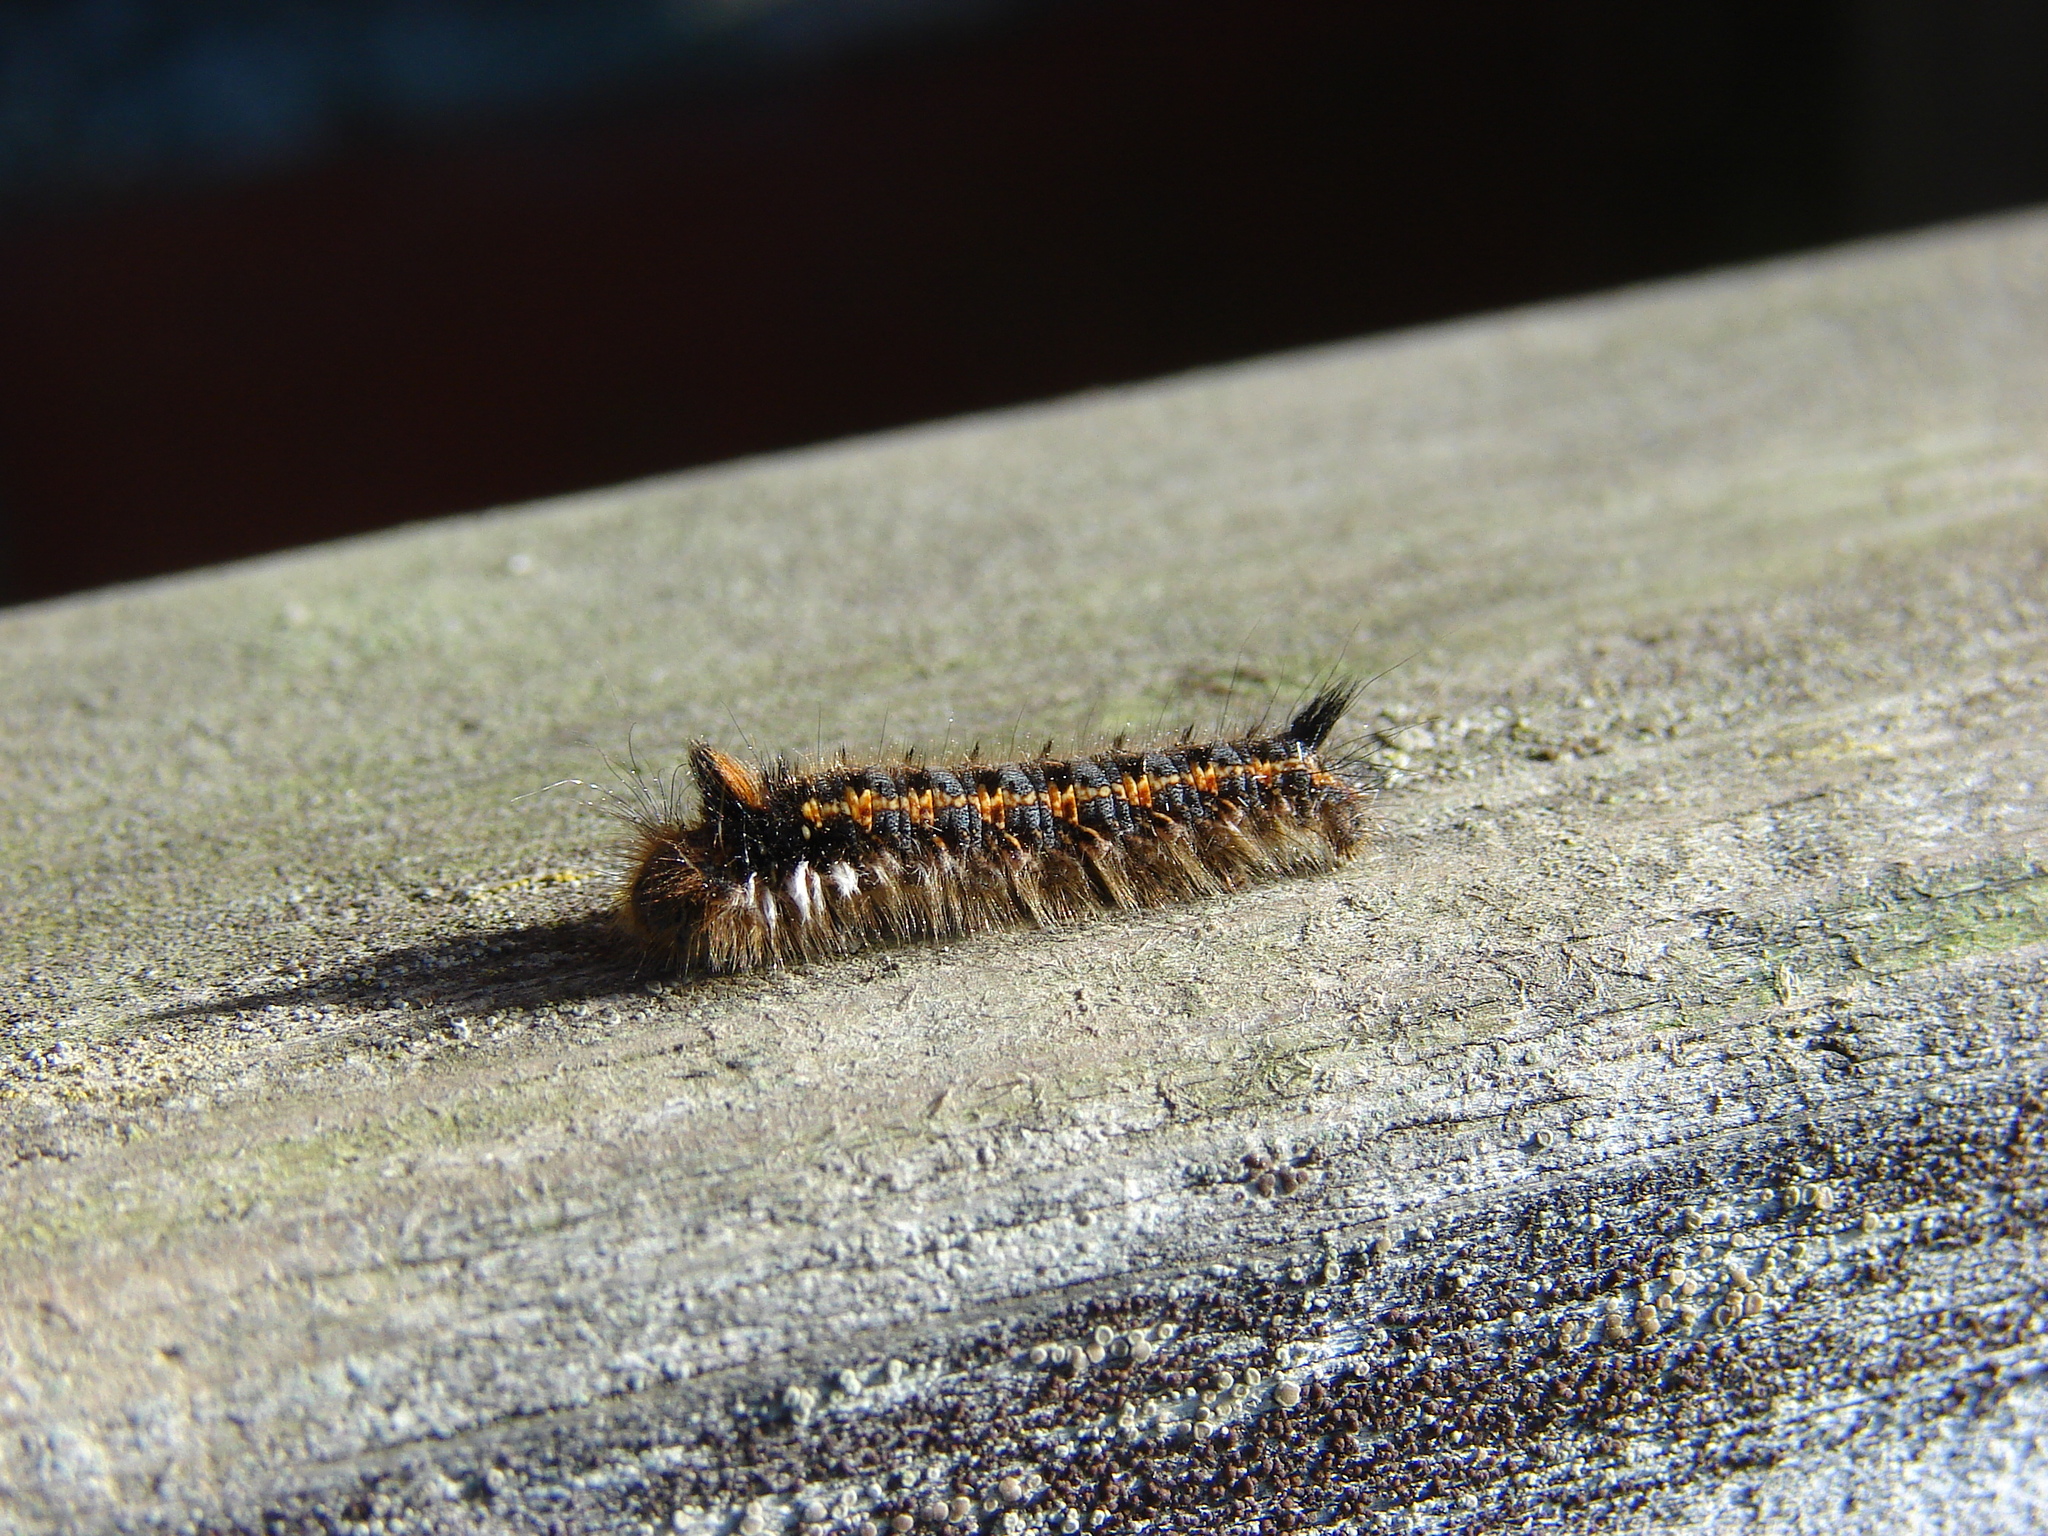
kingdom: Animalia
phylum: Arthropoda
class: Insecta
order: Lepidoptera
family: Lasiocampidae
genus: Euthrix
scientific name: Euthrix potatoria
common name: Drinker
